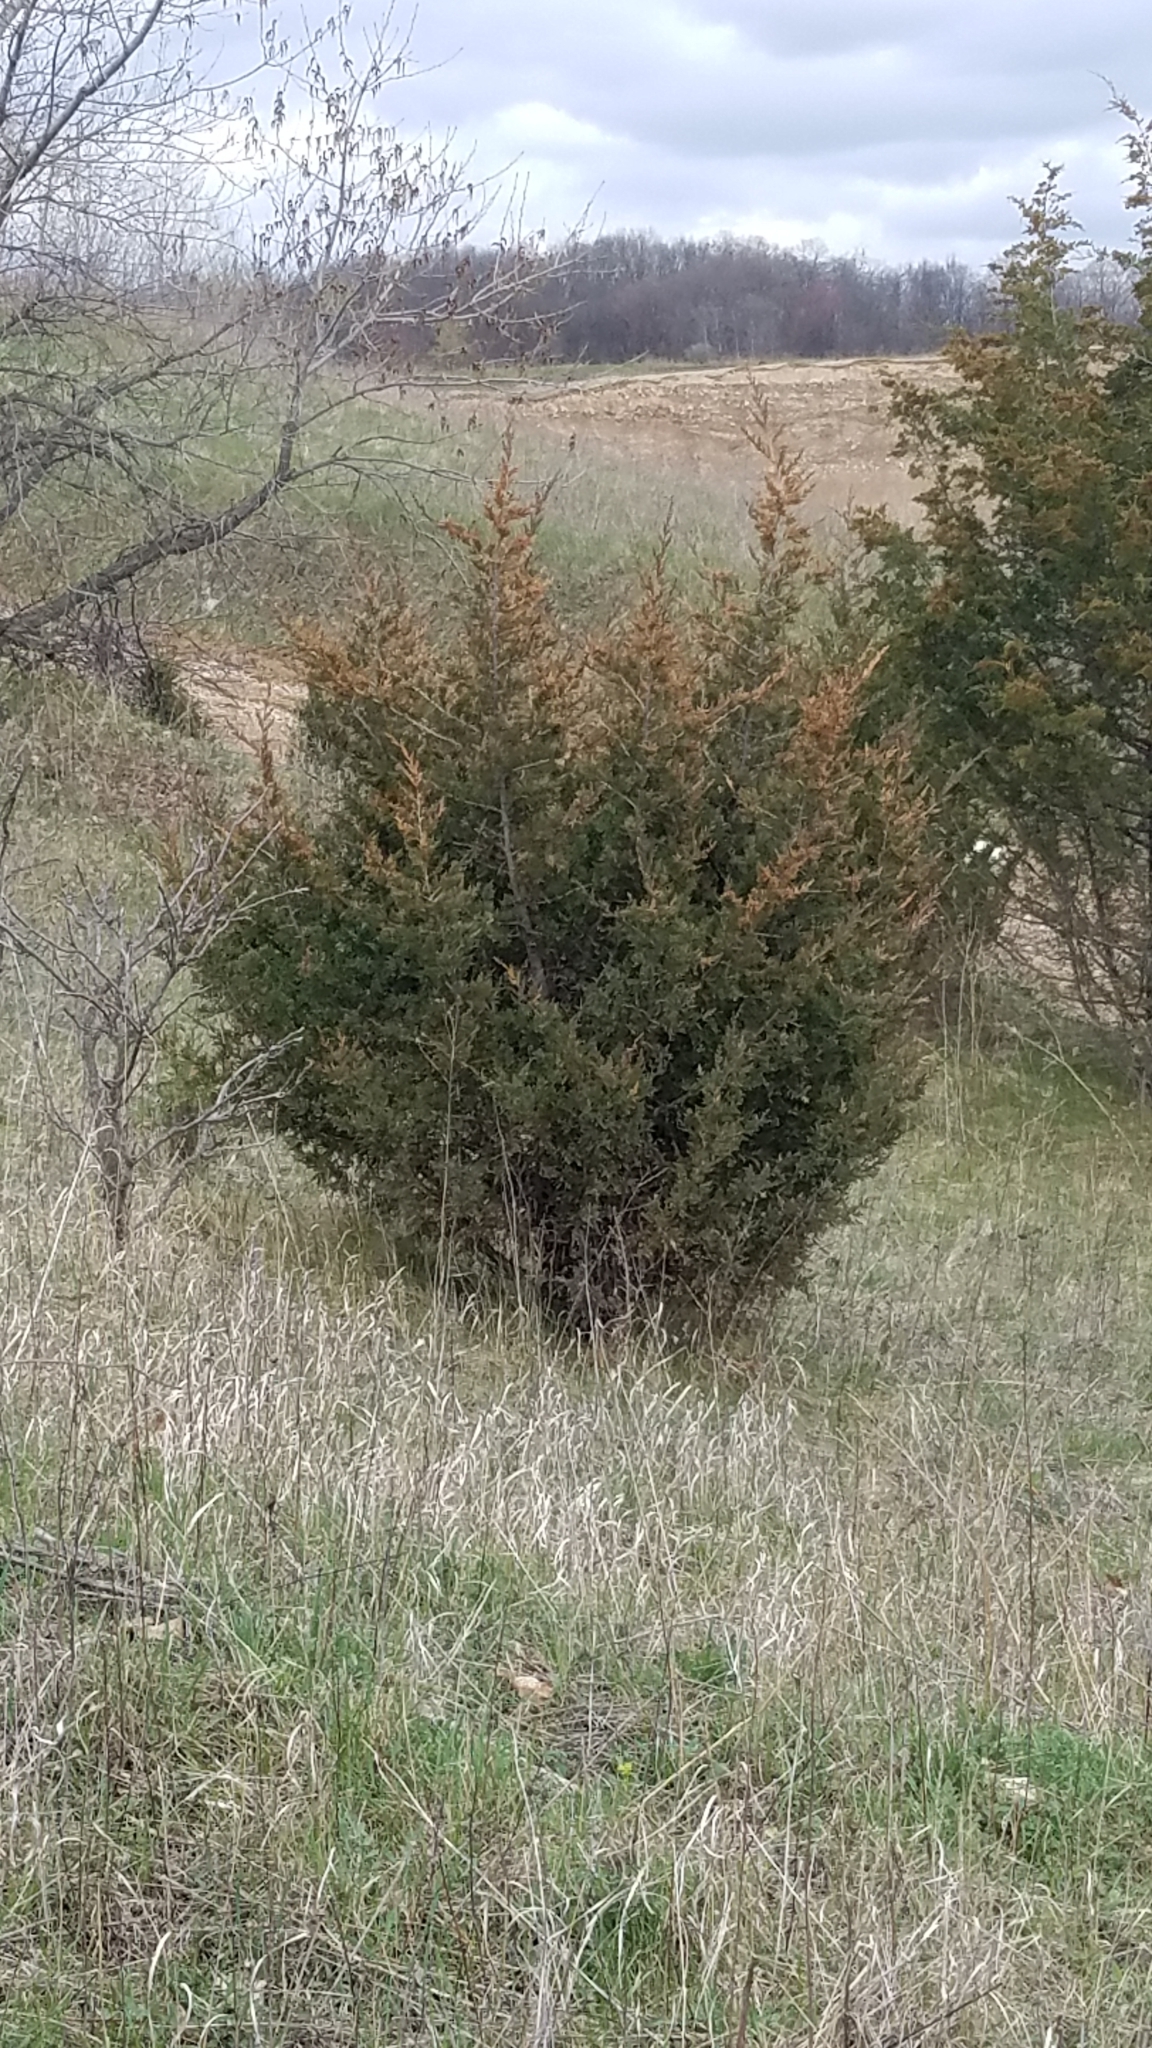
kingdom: Plantae
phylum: Tracheophyta
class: Pinopsida
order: Pinales
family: Cupressaceae
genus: Juniperus
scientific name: Juniperus virginiana
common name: Red juniper
